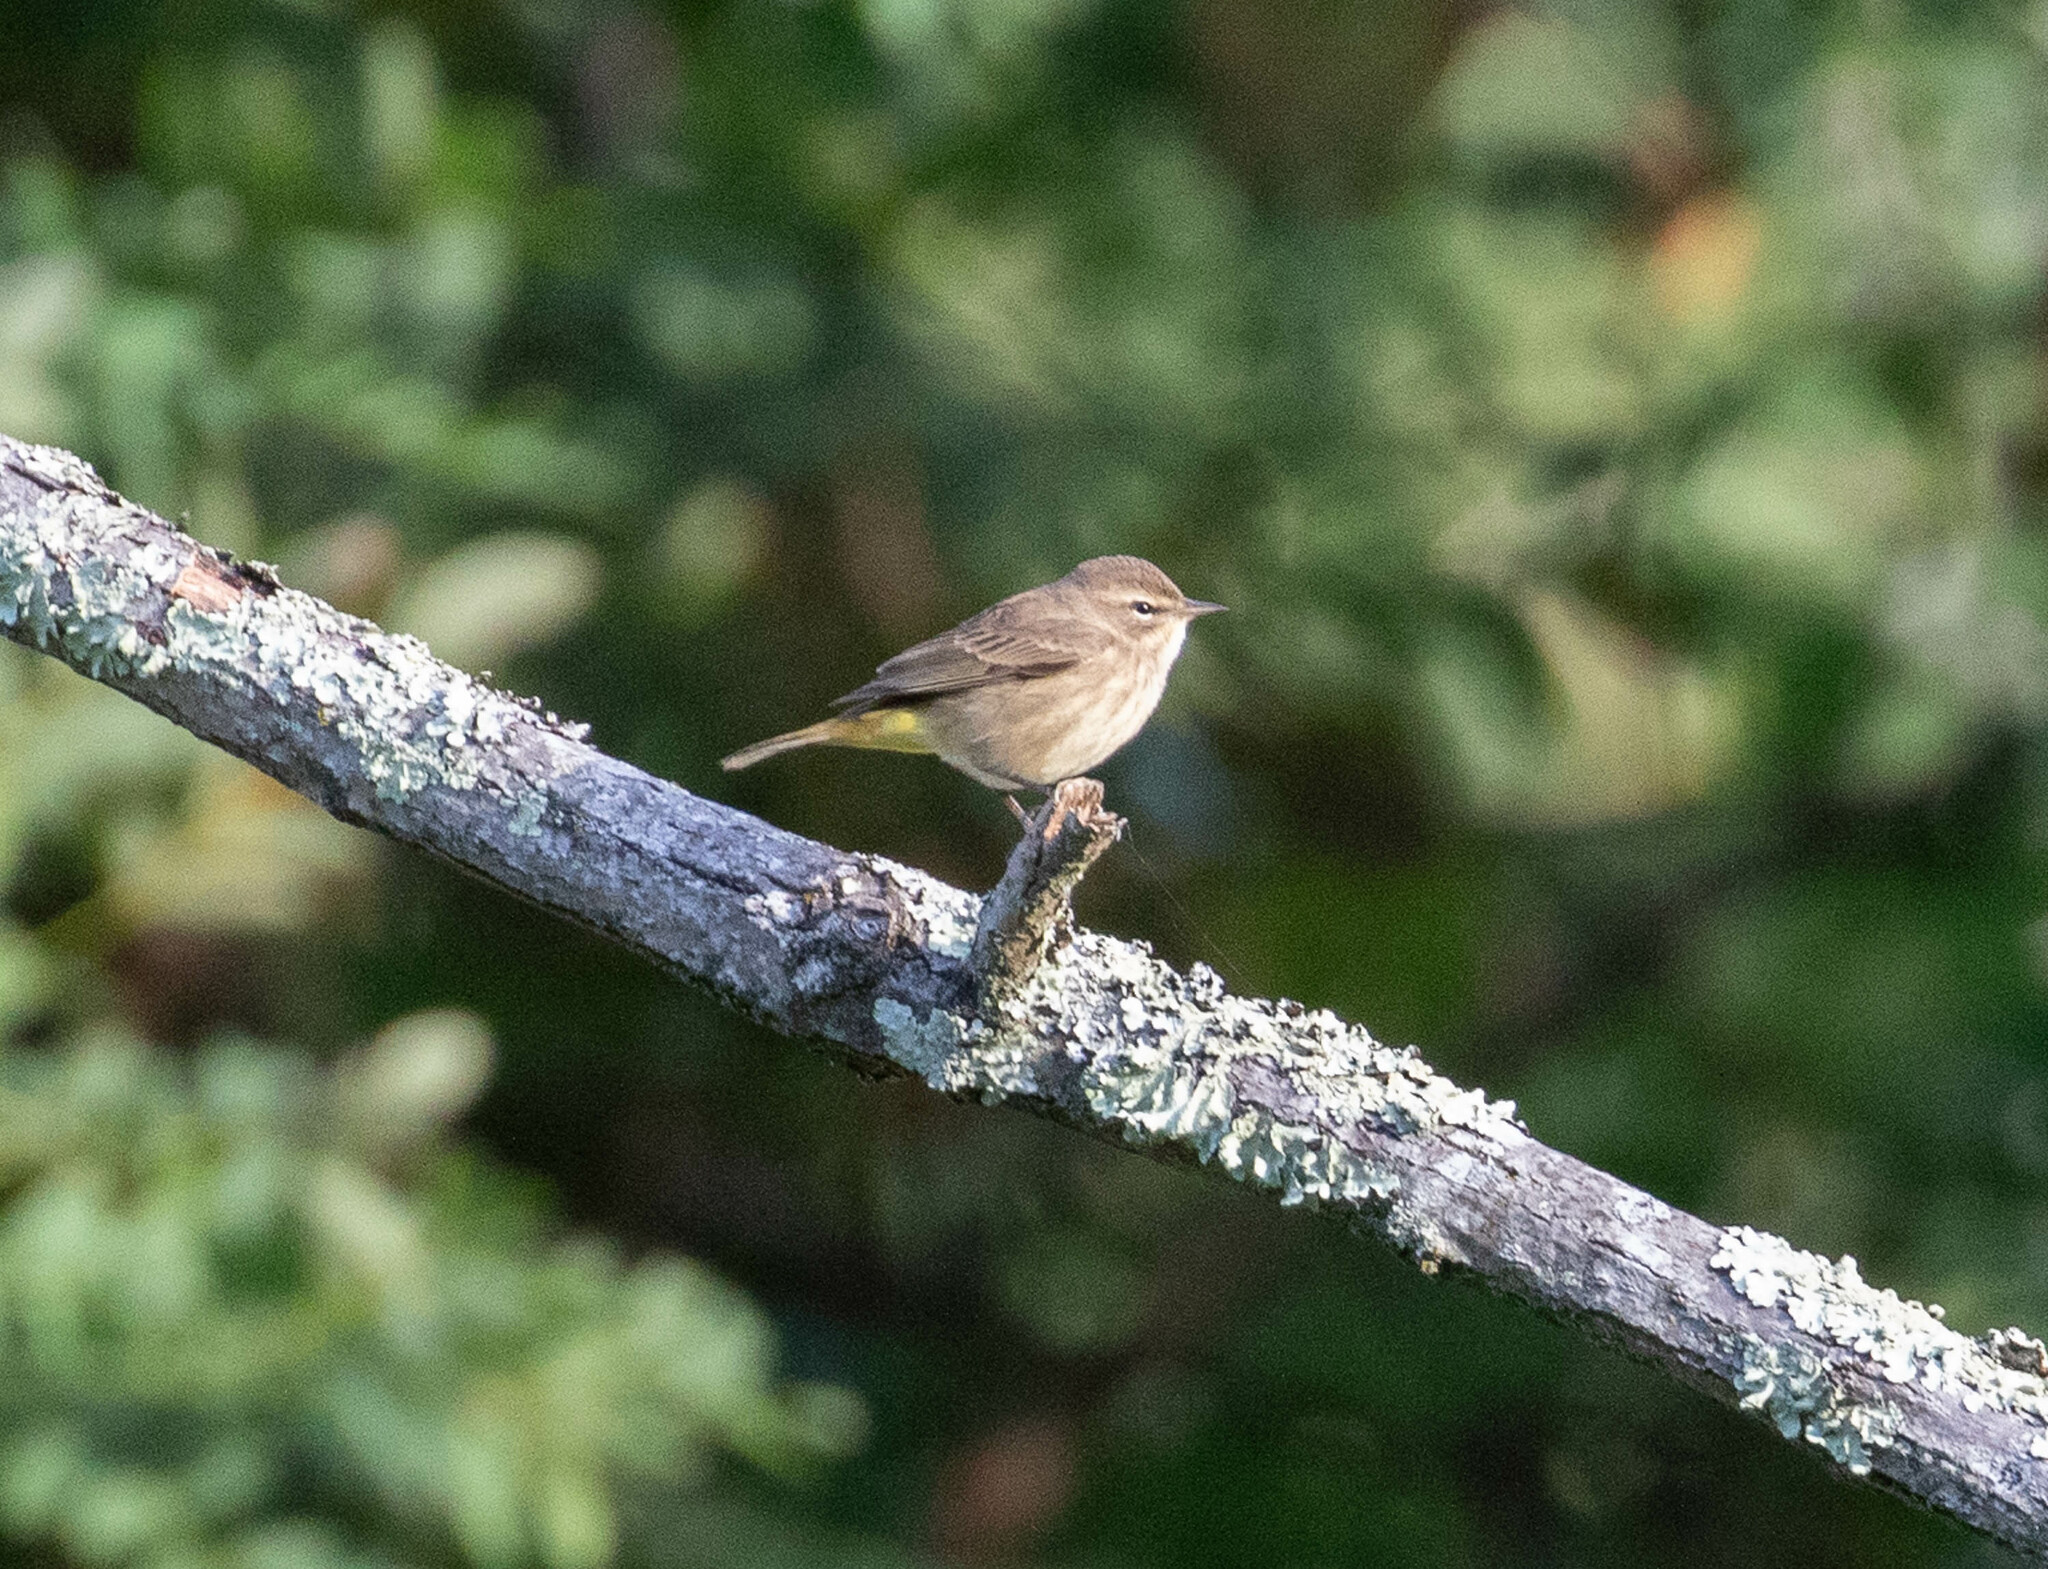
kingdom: Animalia
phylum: Chordata
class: Aves
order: Passeriformes
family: Parulidae
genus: Setophaga
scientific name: Setophaga palmarum
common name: Palm warbler
